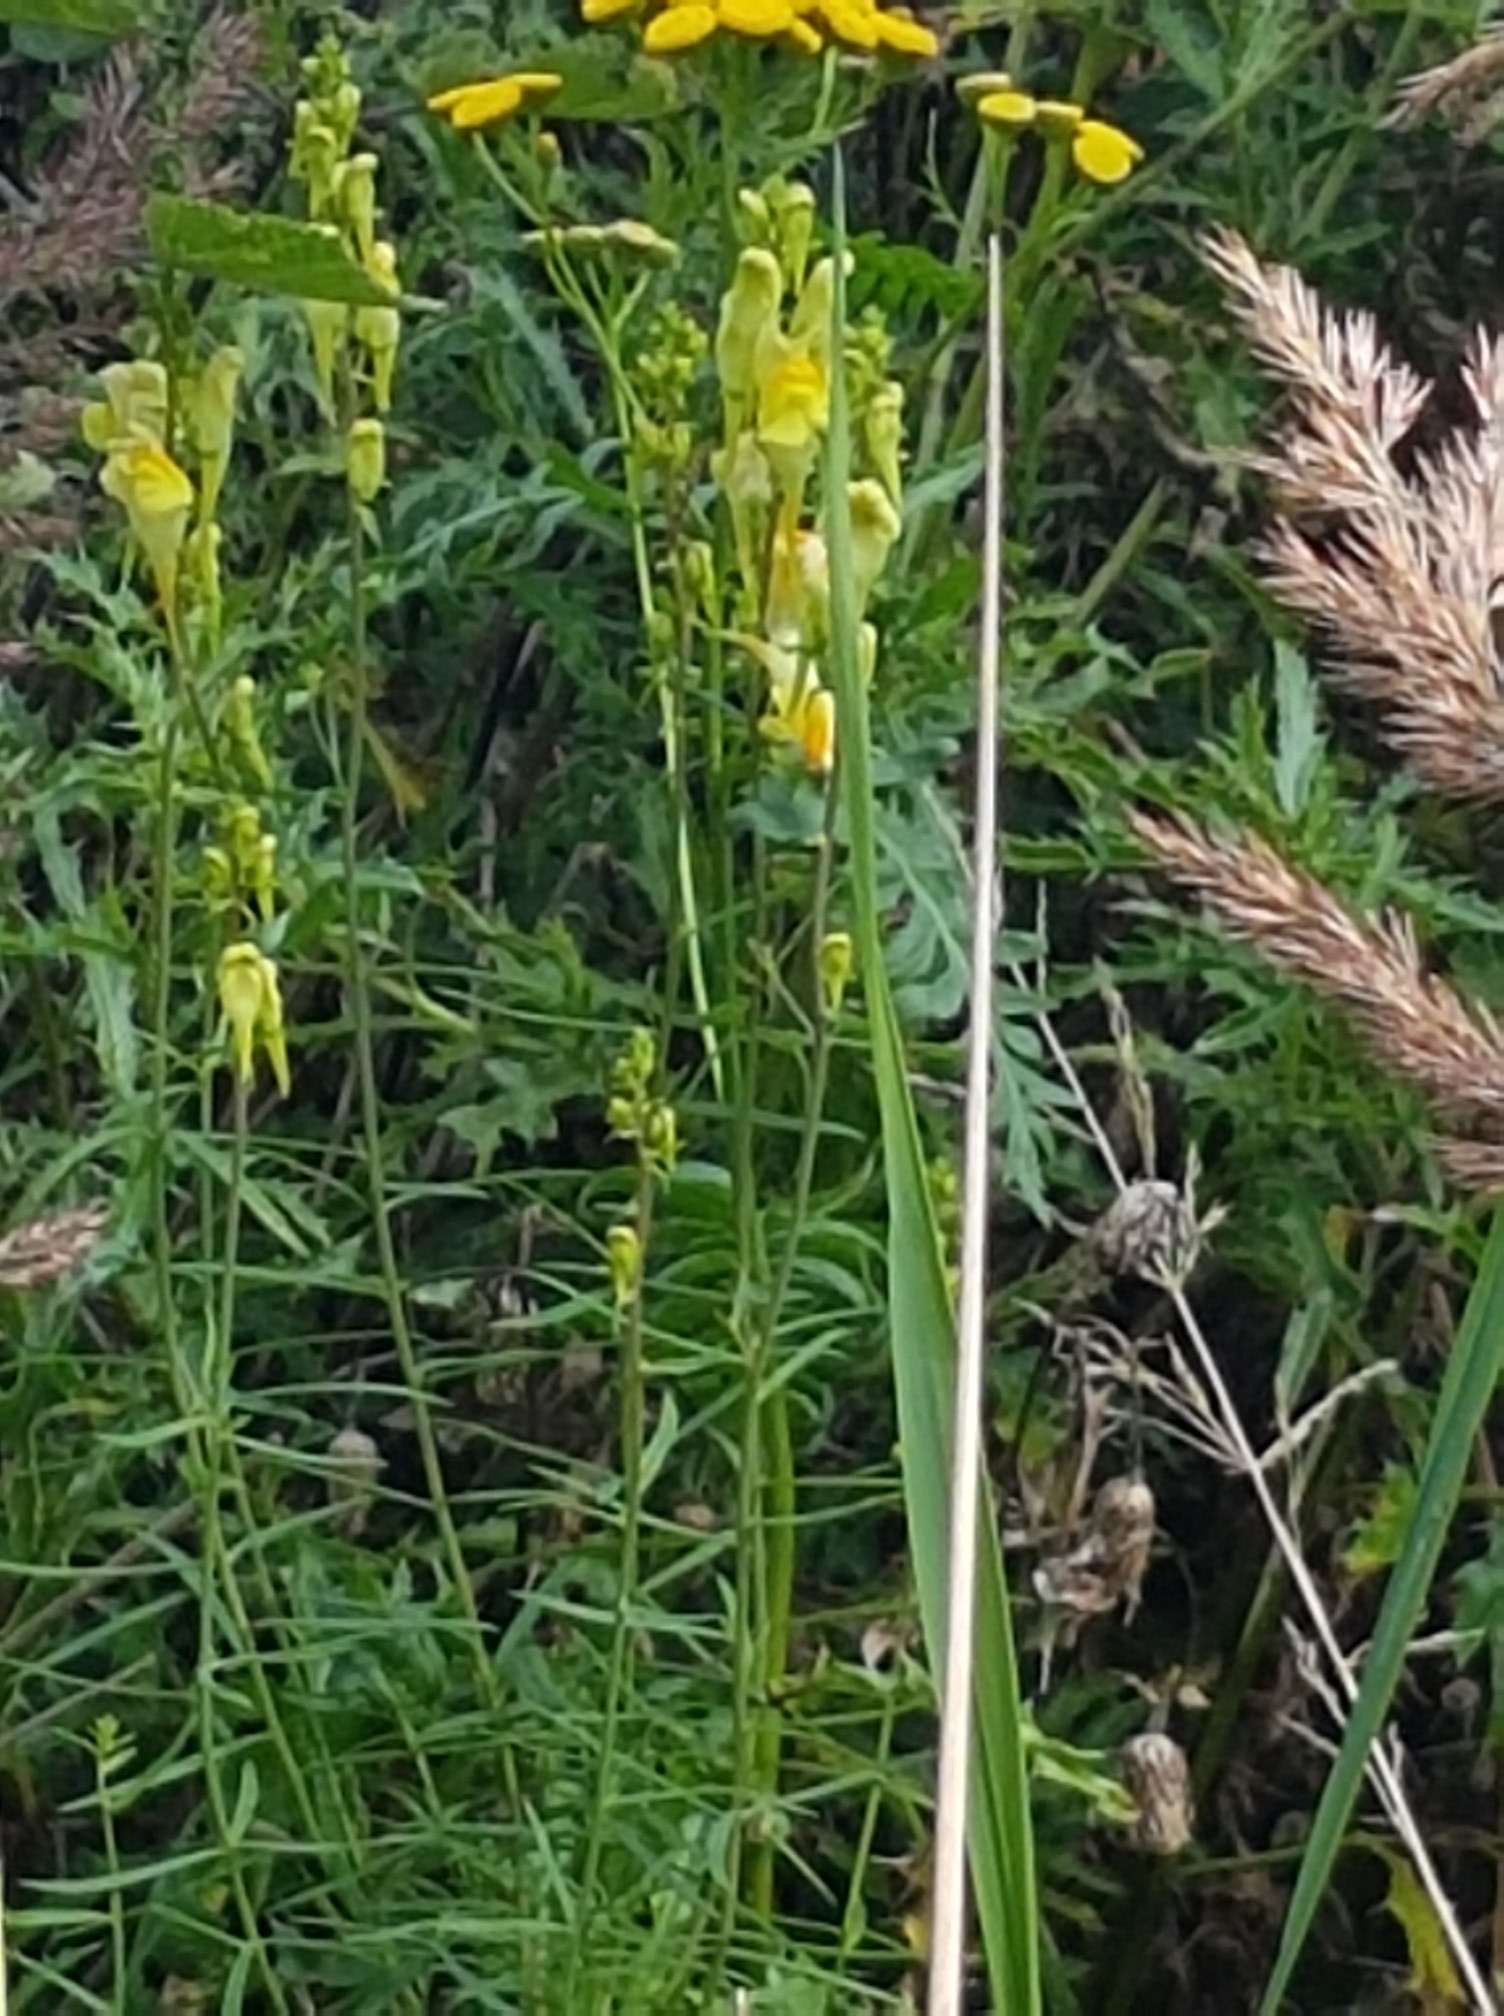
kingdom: Plantae
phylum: Tracheophyta
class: Magnoliopsida
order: Lamiales
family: Plantaginaceae
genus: Linaria
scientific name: Linaria vulgaris
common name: Butter and eggs
